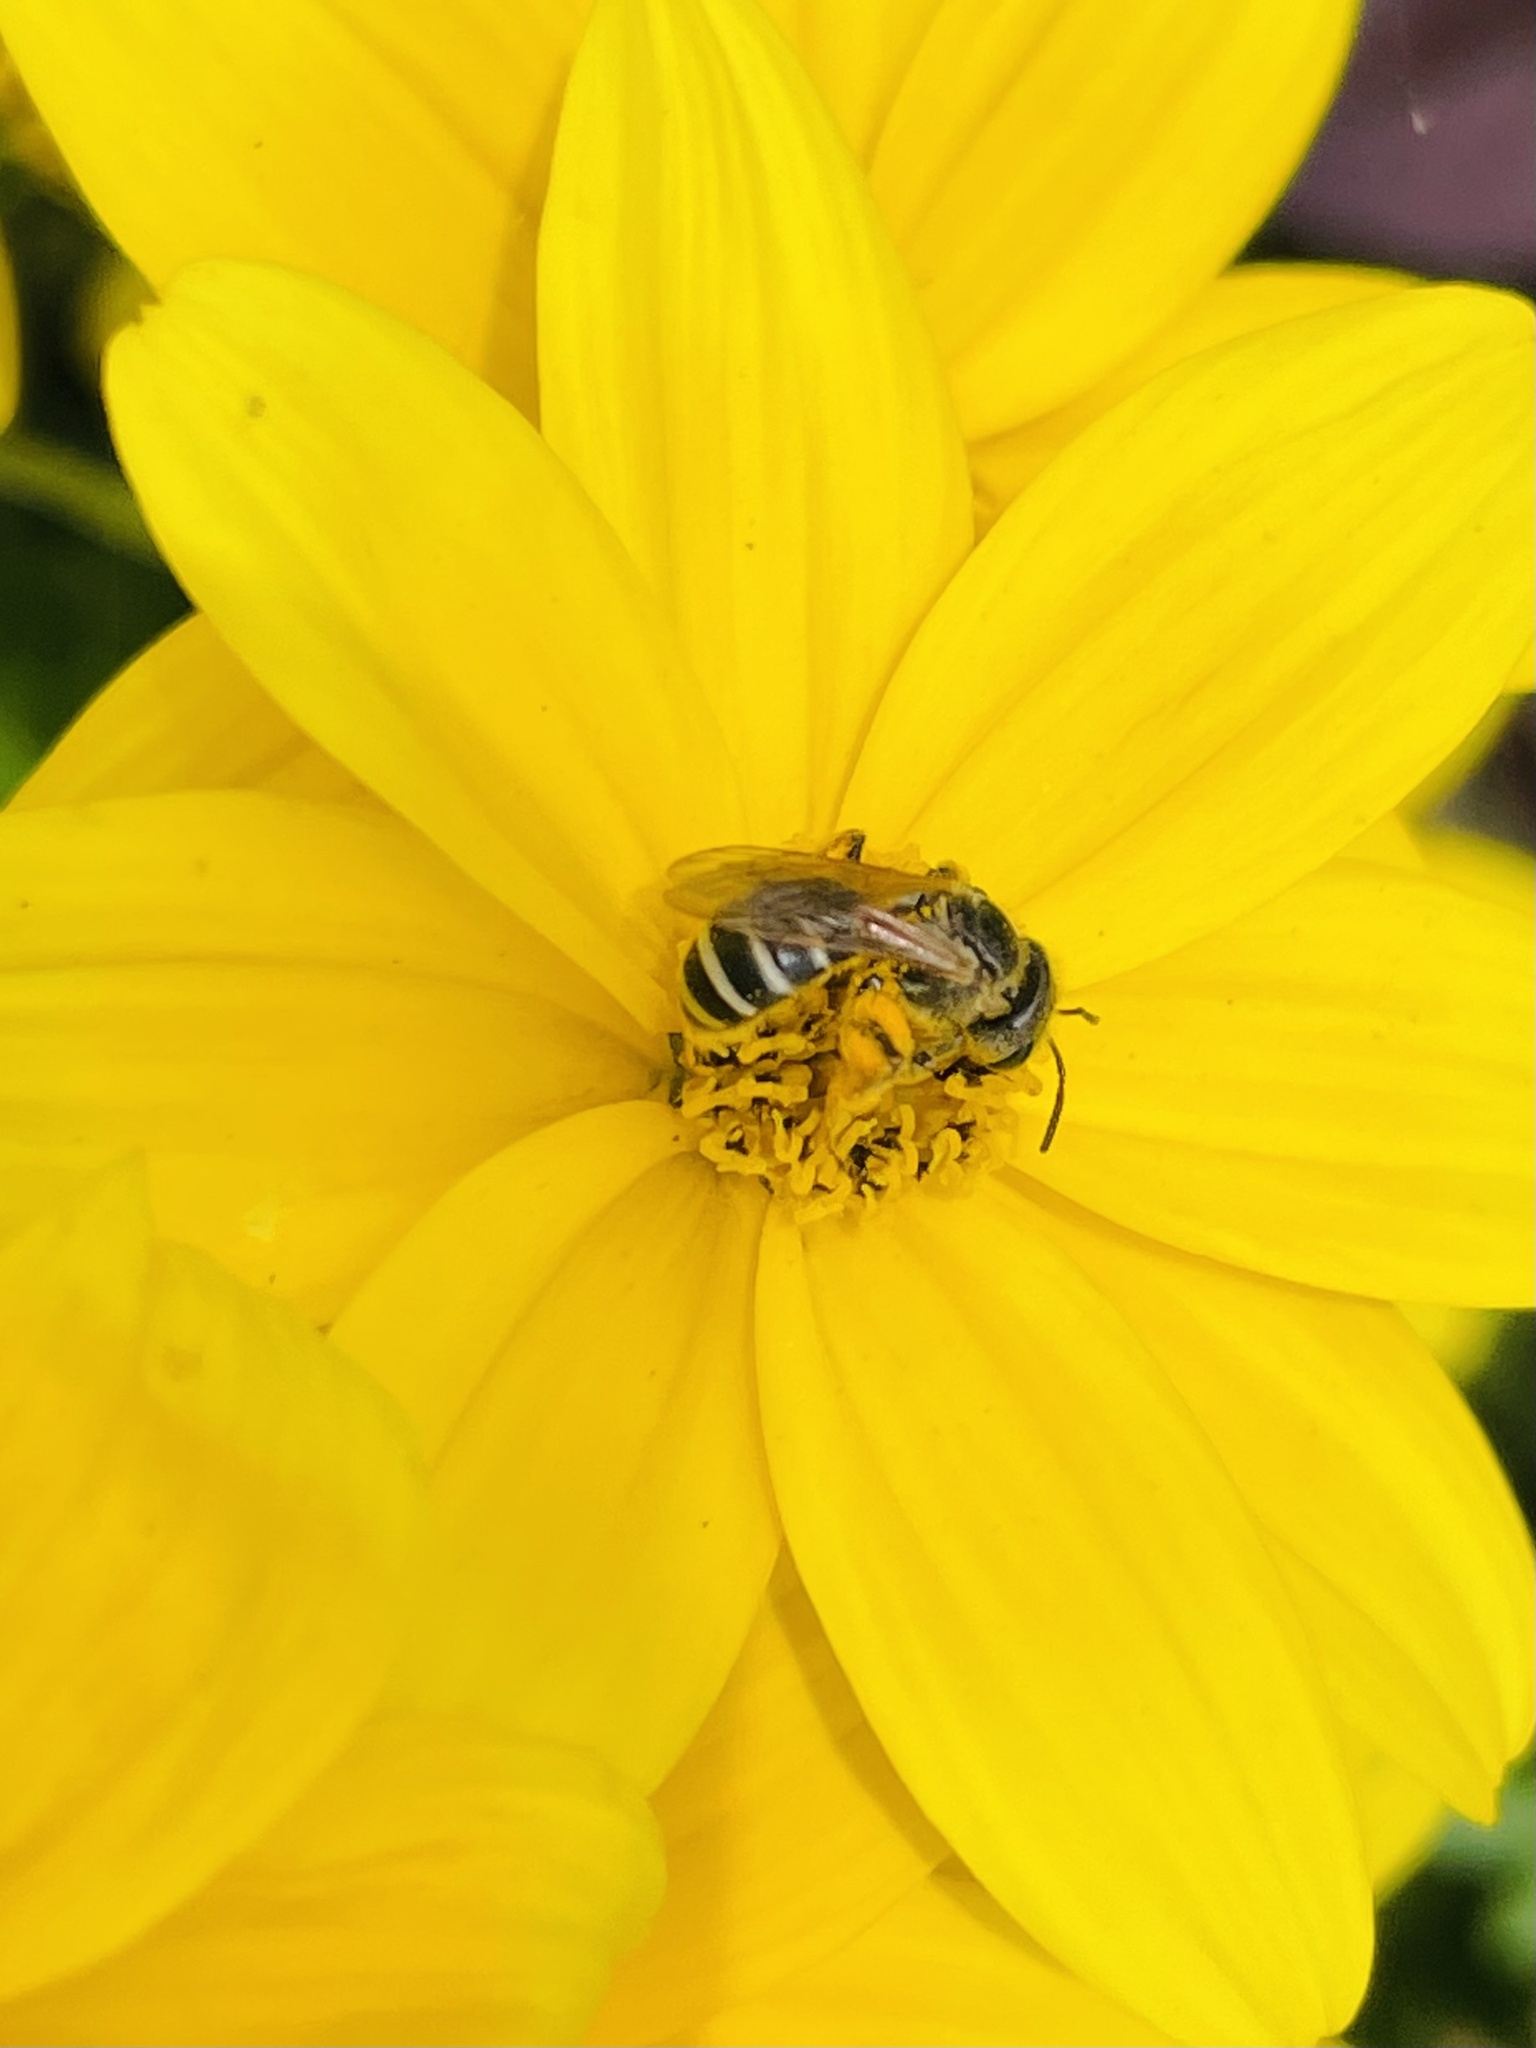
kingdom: Animalia
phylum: Arthropoda
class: Insecta
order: Hymenoptera
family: Halictidae
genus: Halictus
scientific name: Halictus ligatus
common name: Ligated furrow bee
